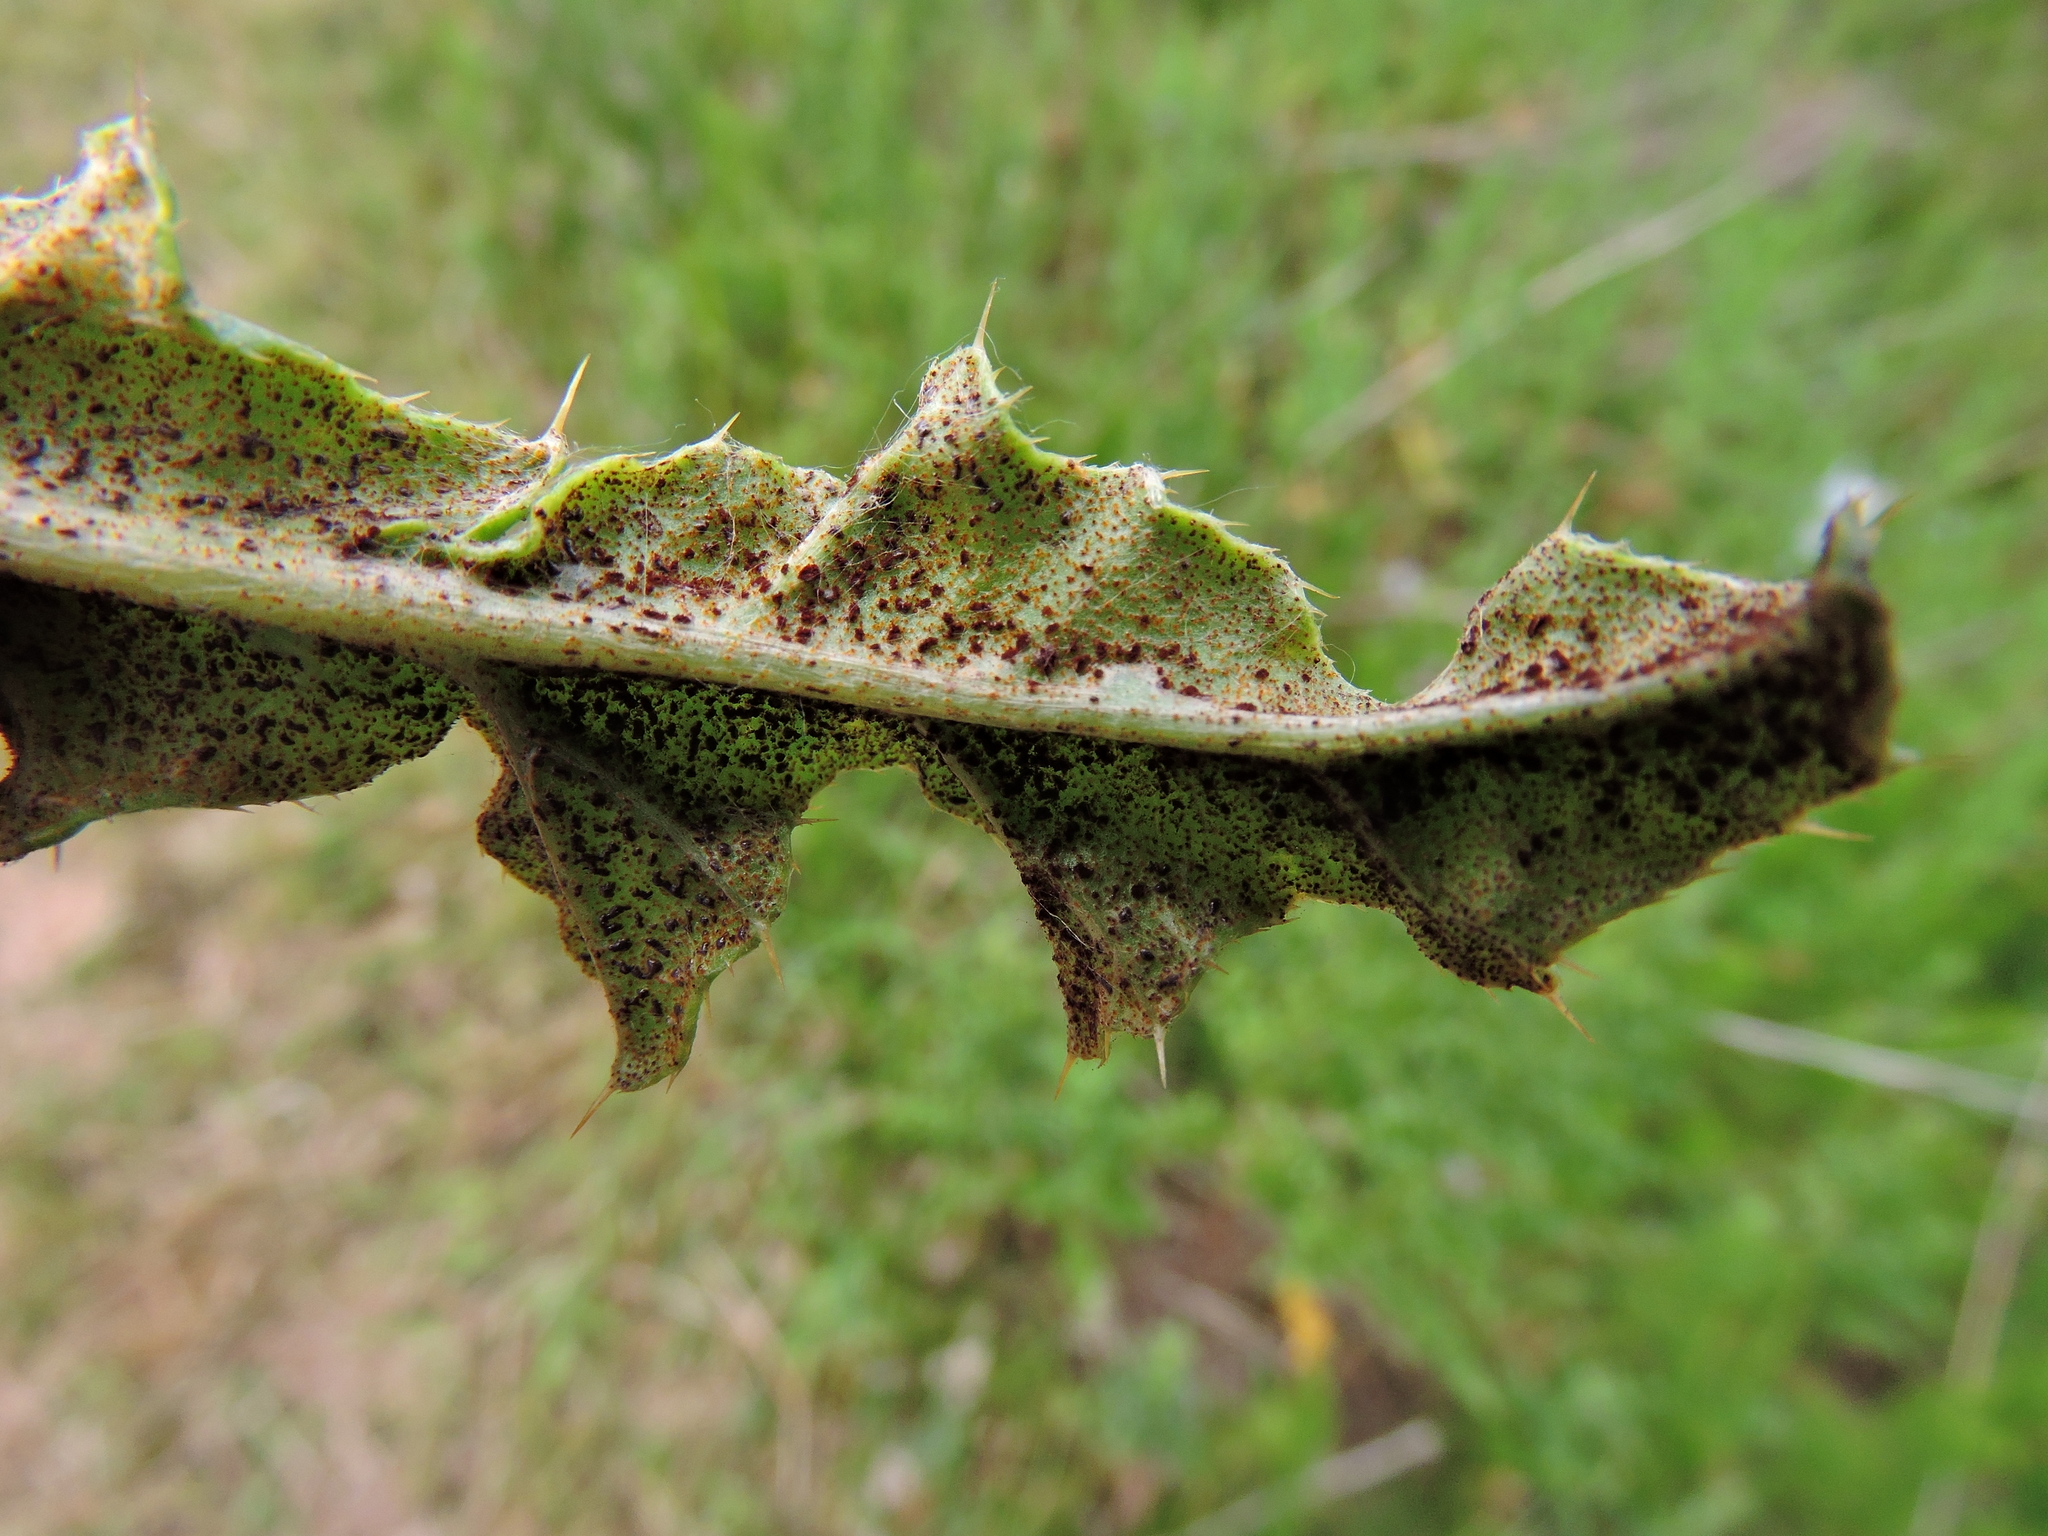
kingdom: Fungi
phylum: Basidiomycota
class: Pucciniomycetes
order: Pucciniales
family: Pucciniaceae
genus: Puccinia
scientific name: Puccinia suaveolens
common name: Thistle rust
